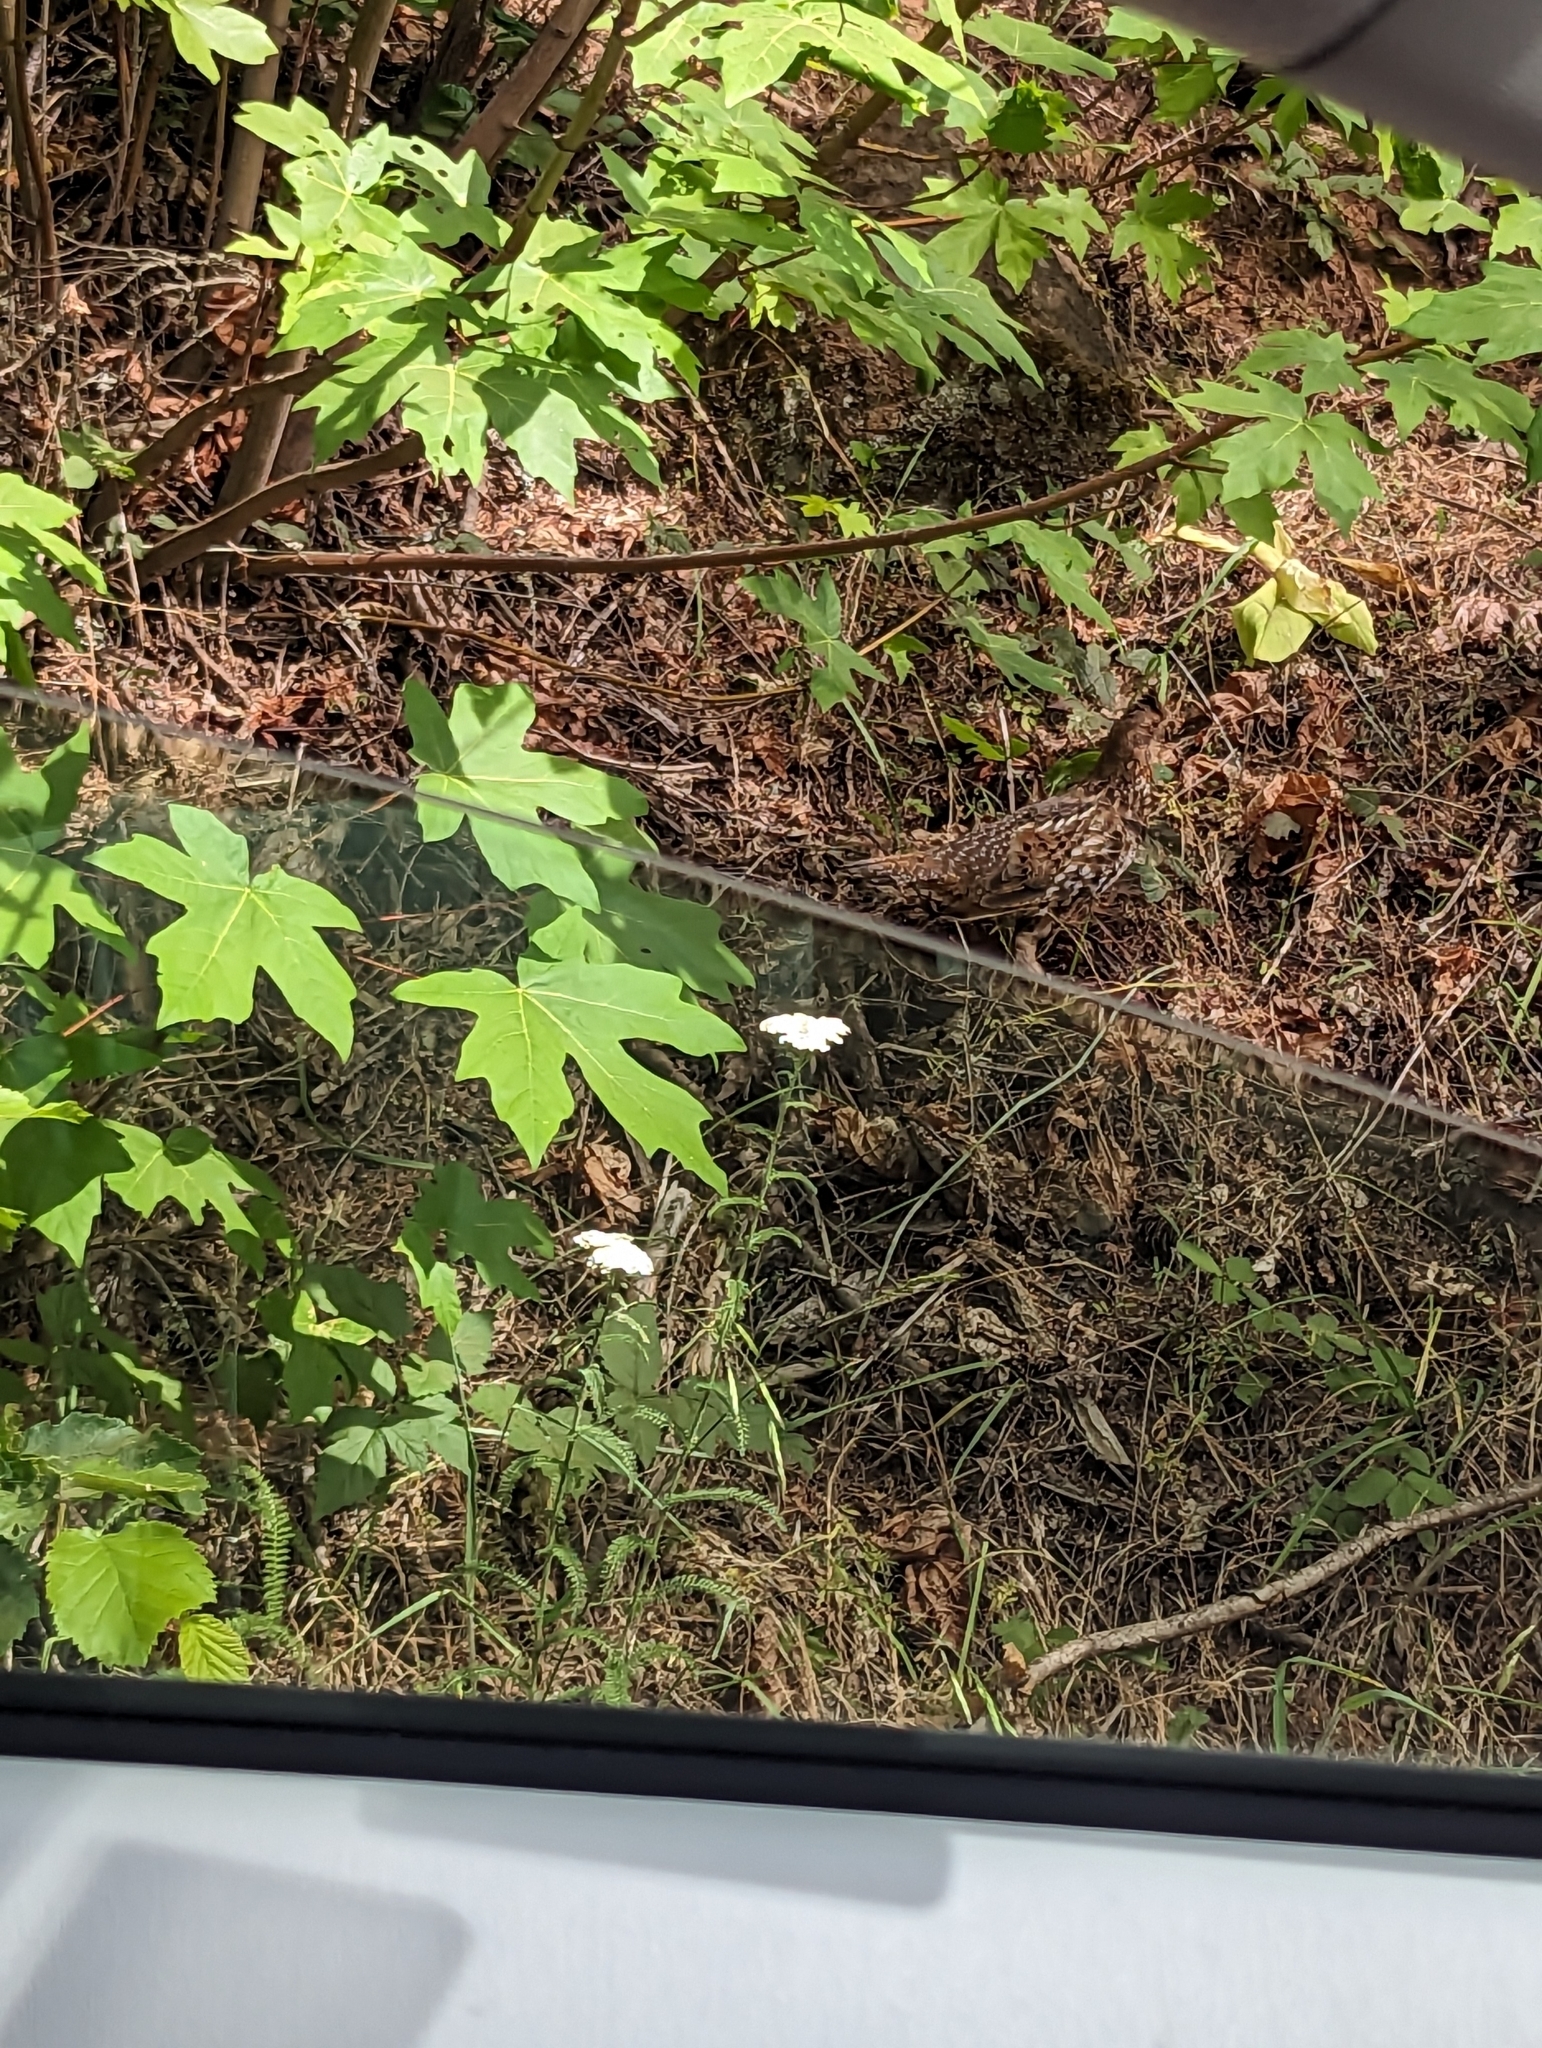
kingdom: Animalia
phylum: Chordata
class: Aves
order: Galliformes
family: Phasianidae
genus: Bonasa
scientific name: Bonasa umbellus
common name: Ruffed grouse
